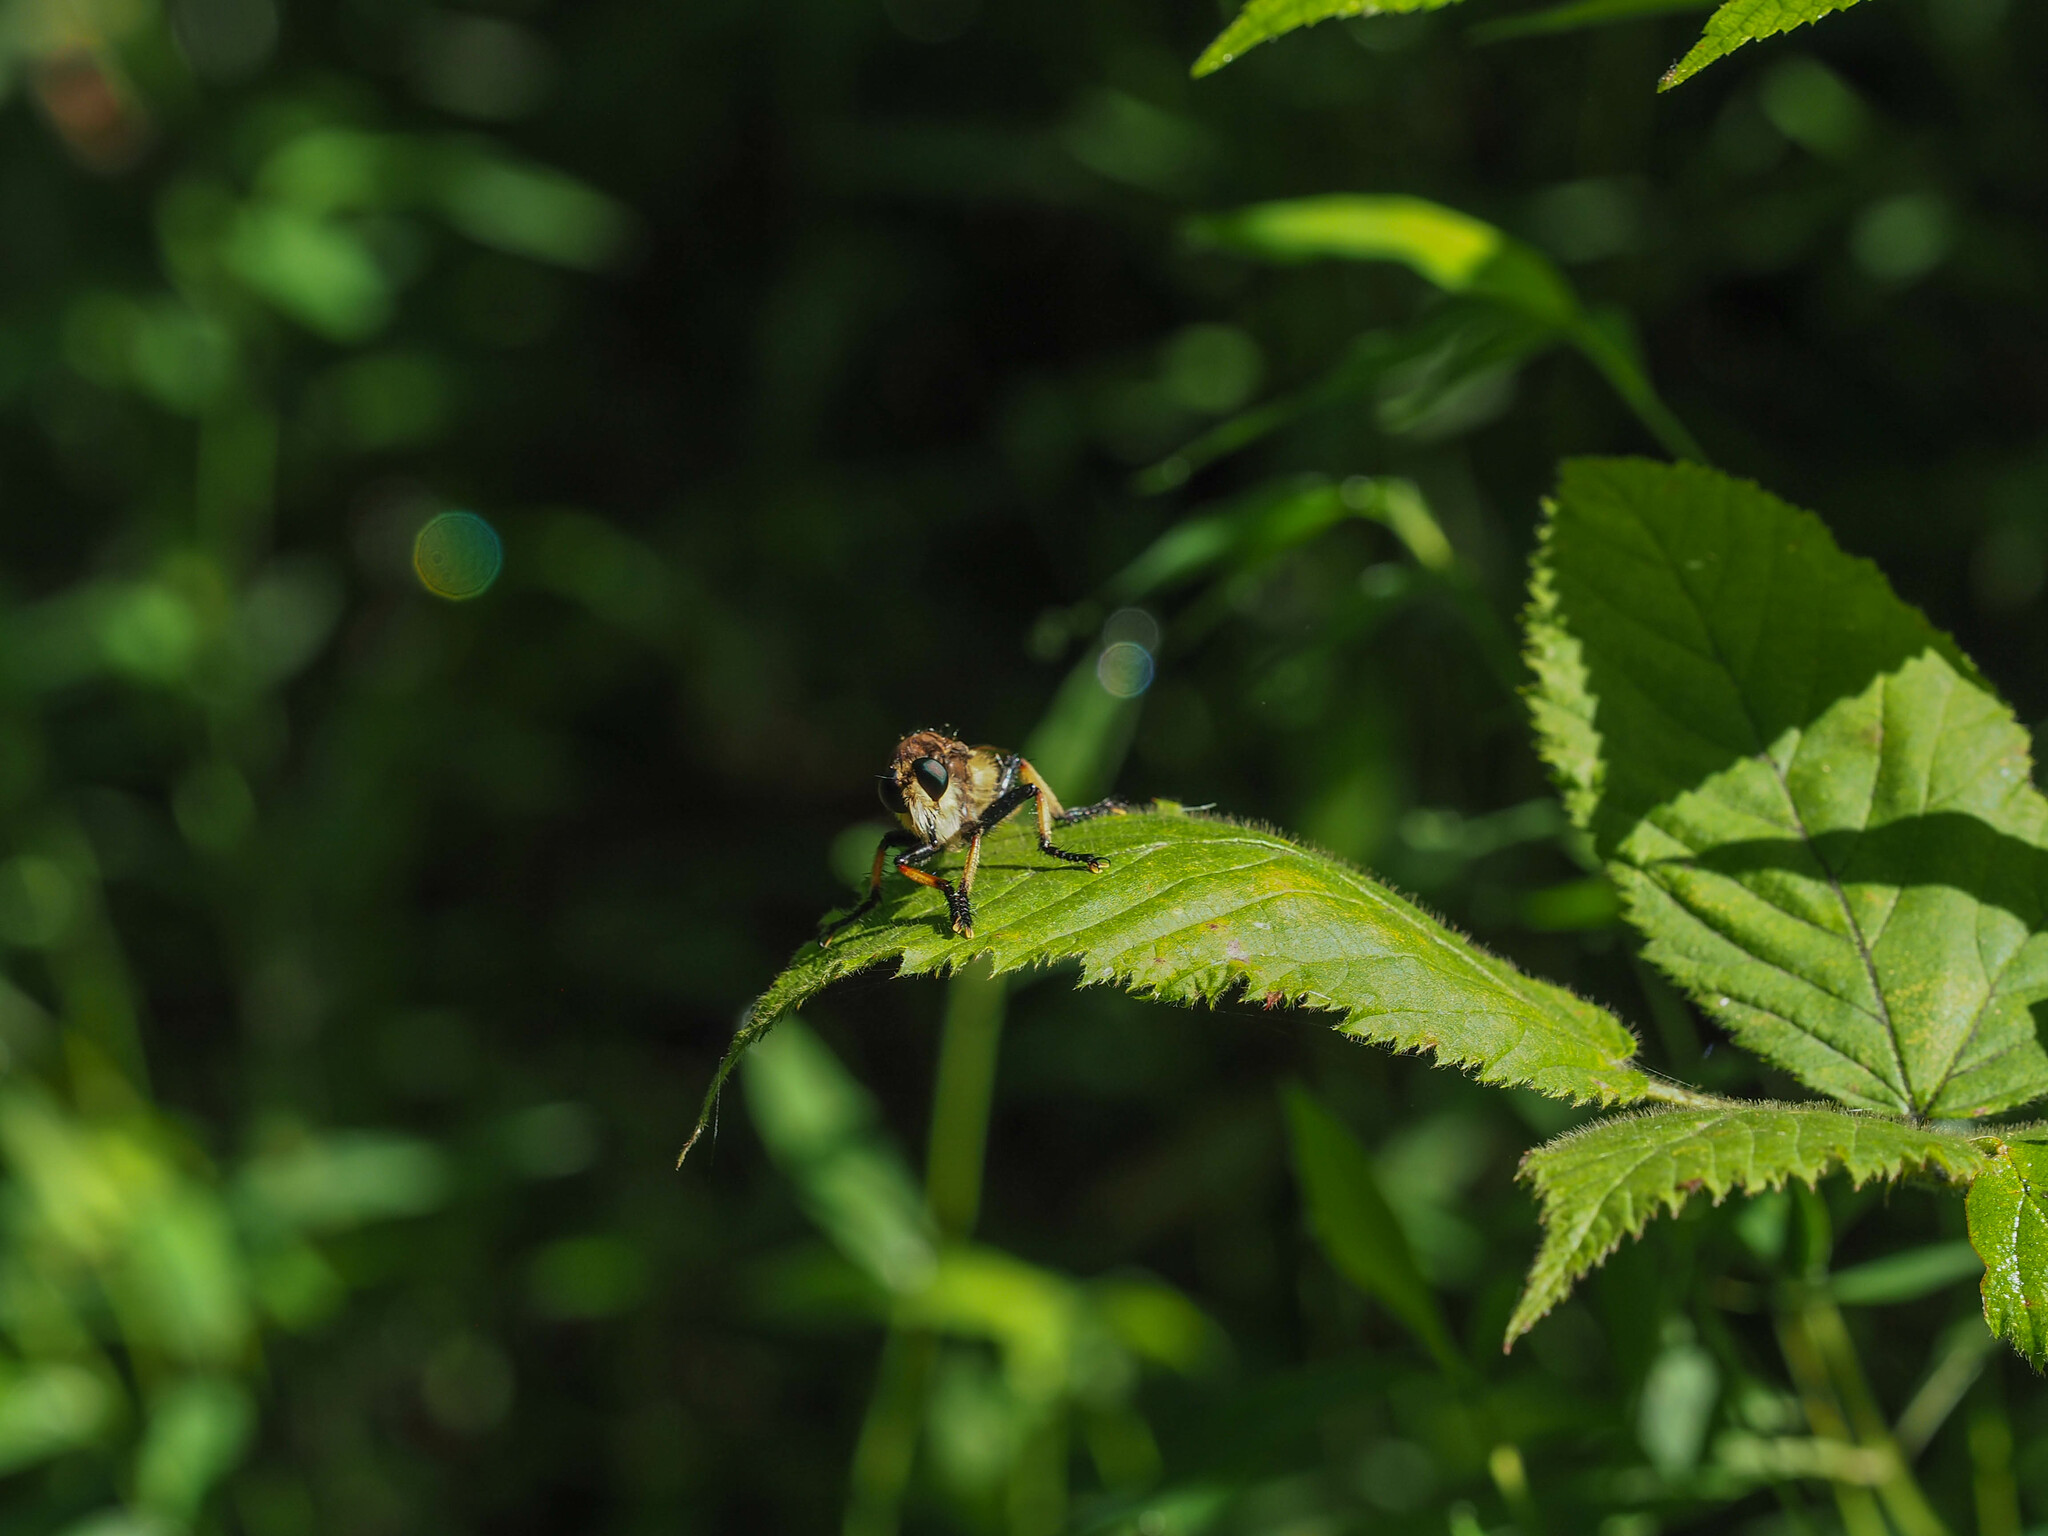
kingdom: Animalia
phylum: Arthropoda
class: Insecta
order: Diptera
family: Asilidae
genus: Promachus
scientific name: Promachus rufipes
